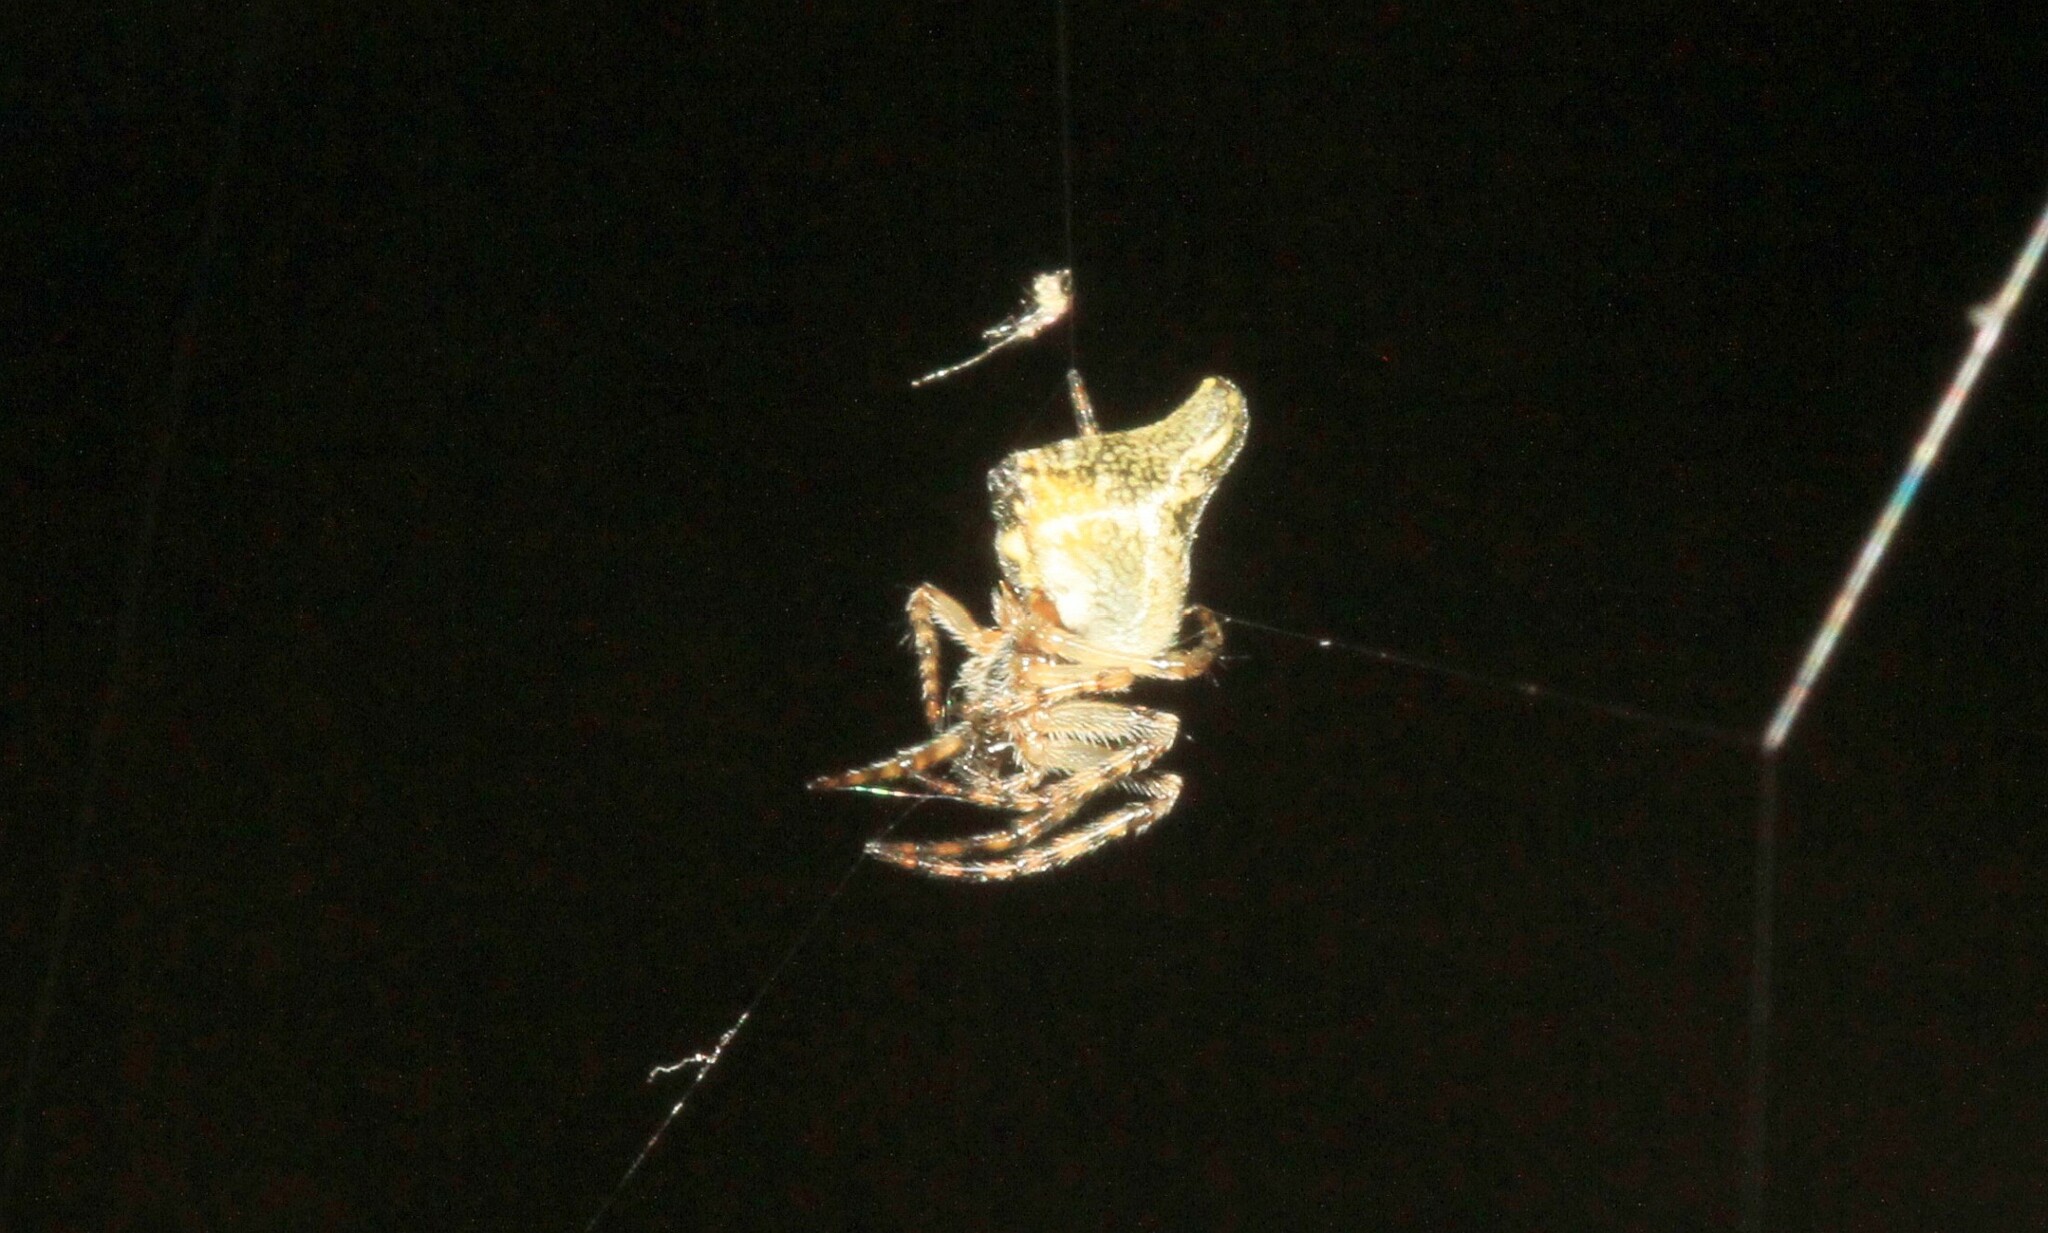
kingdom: Animalia
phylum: Arthropoda
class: Arachnida
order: Araneae
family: Araneidae
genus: Cyclosa
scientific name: Cyclosa conica
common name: Conical trashline orbweaver
